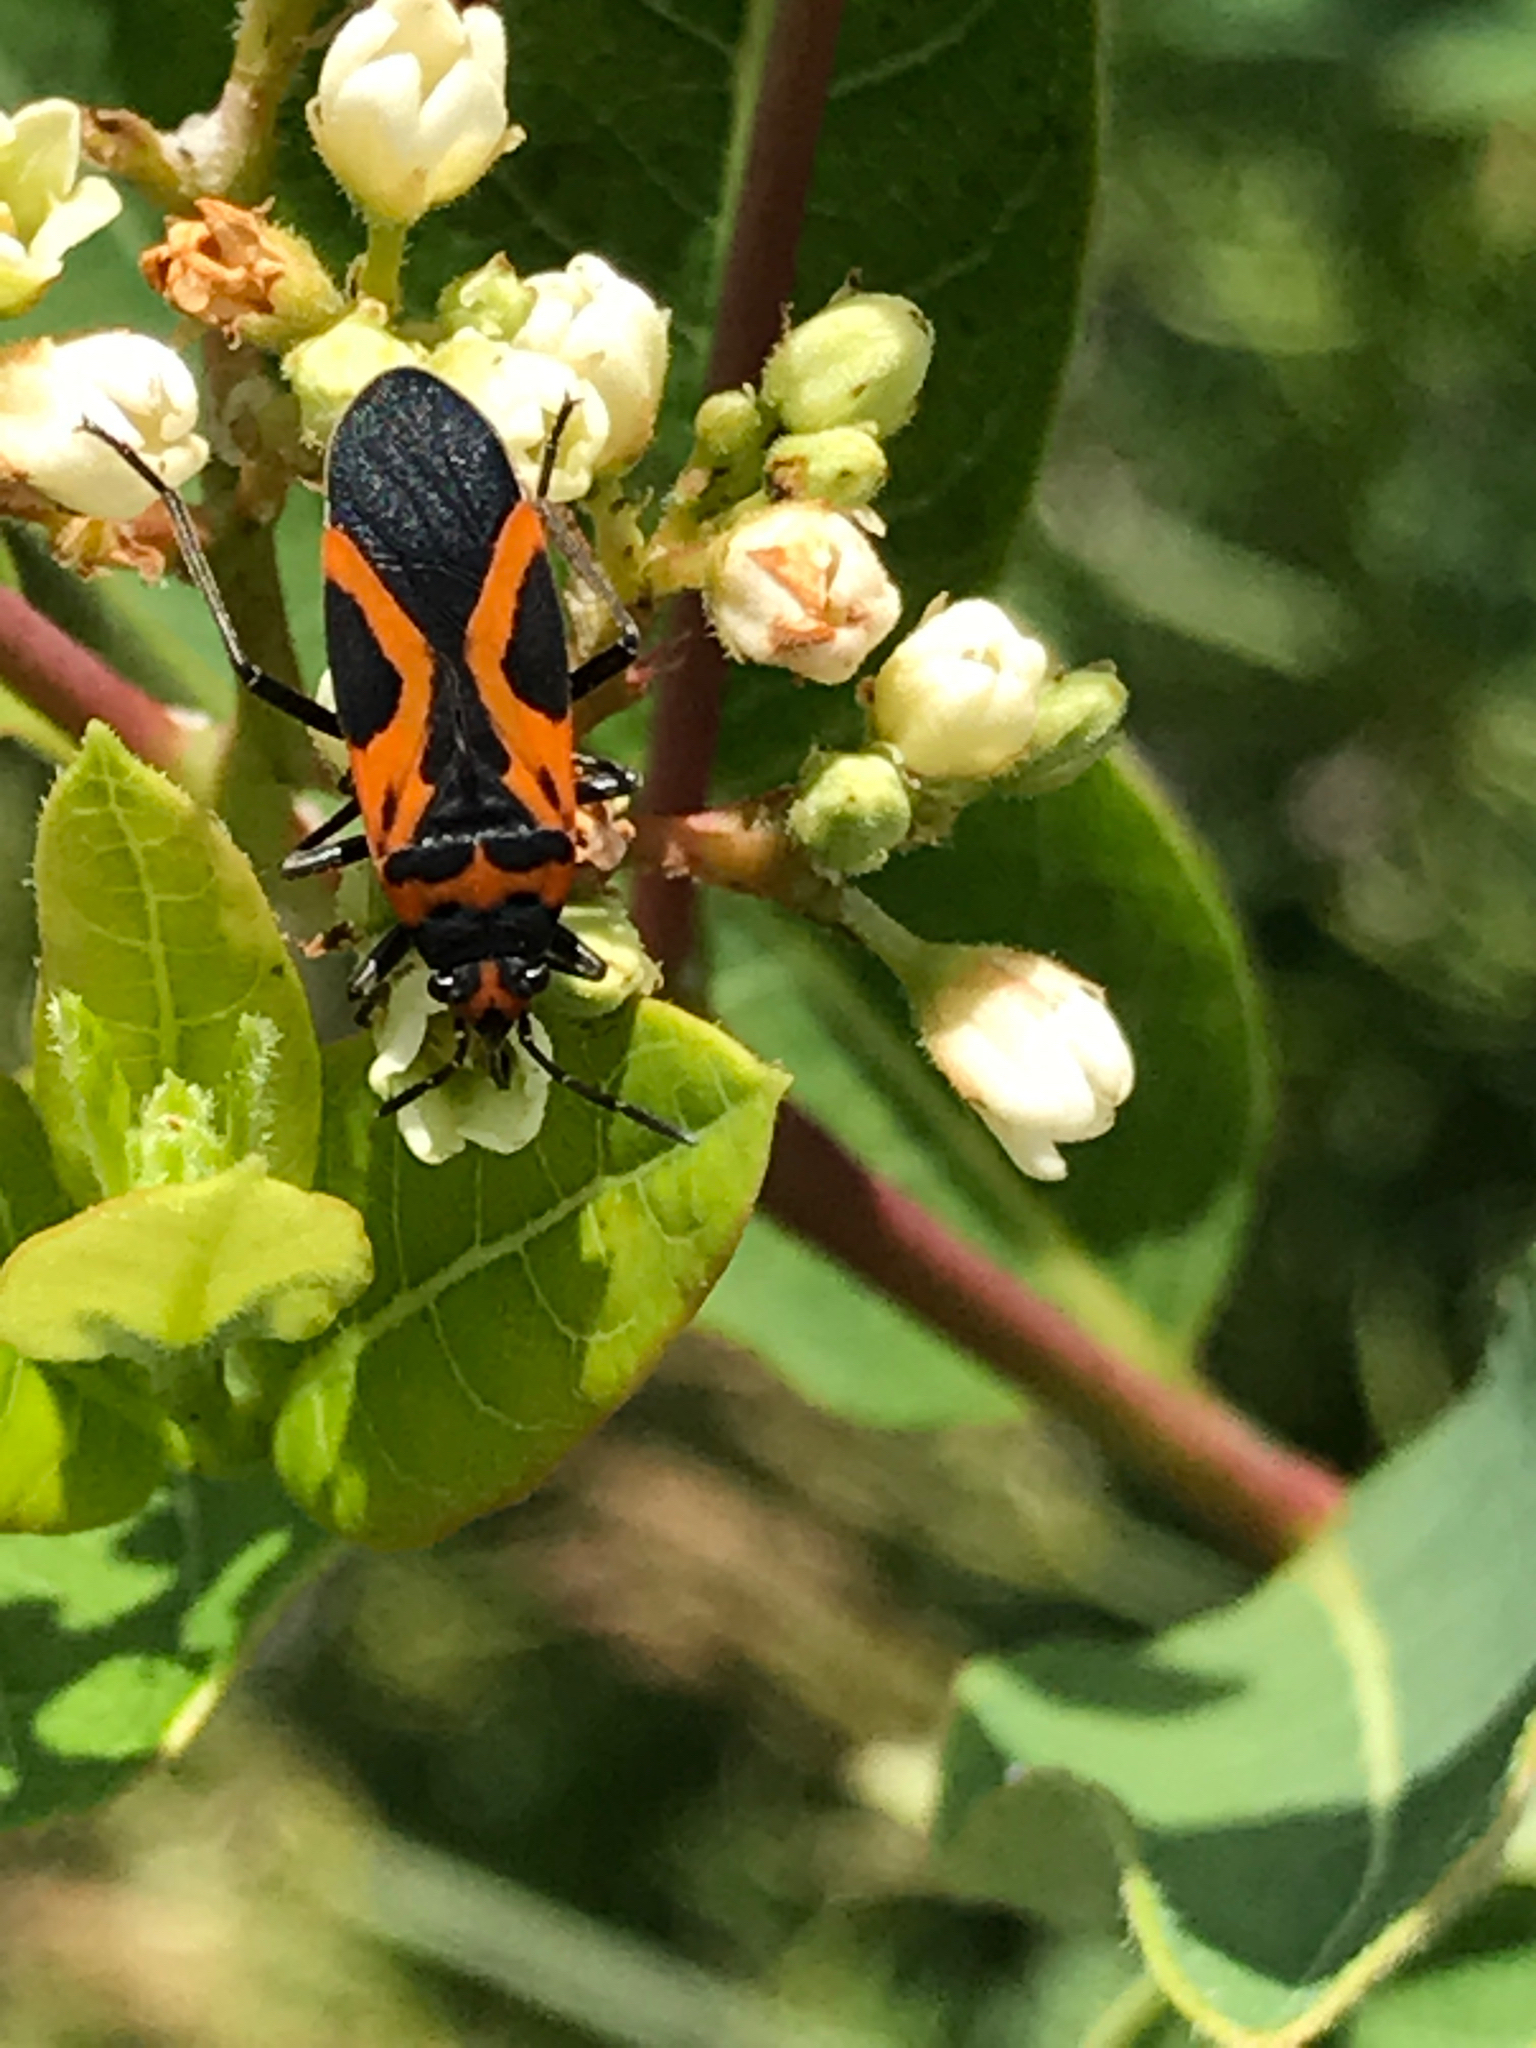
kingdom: Animalia
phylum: Arthropoda
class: Insecta
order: Hemiptera
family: Lygaeidae
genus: Lygaeus
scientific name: Lygaeus turcicus
